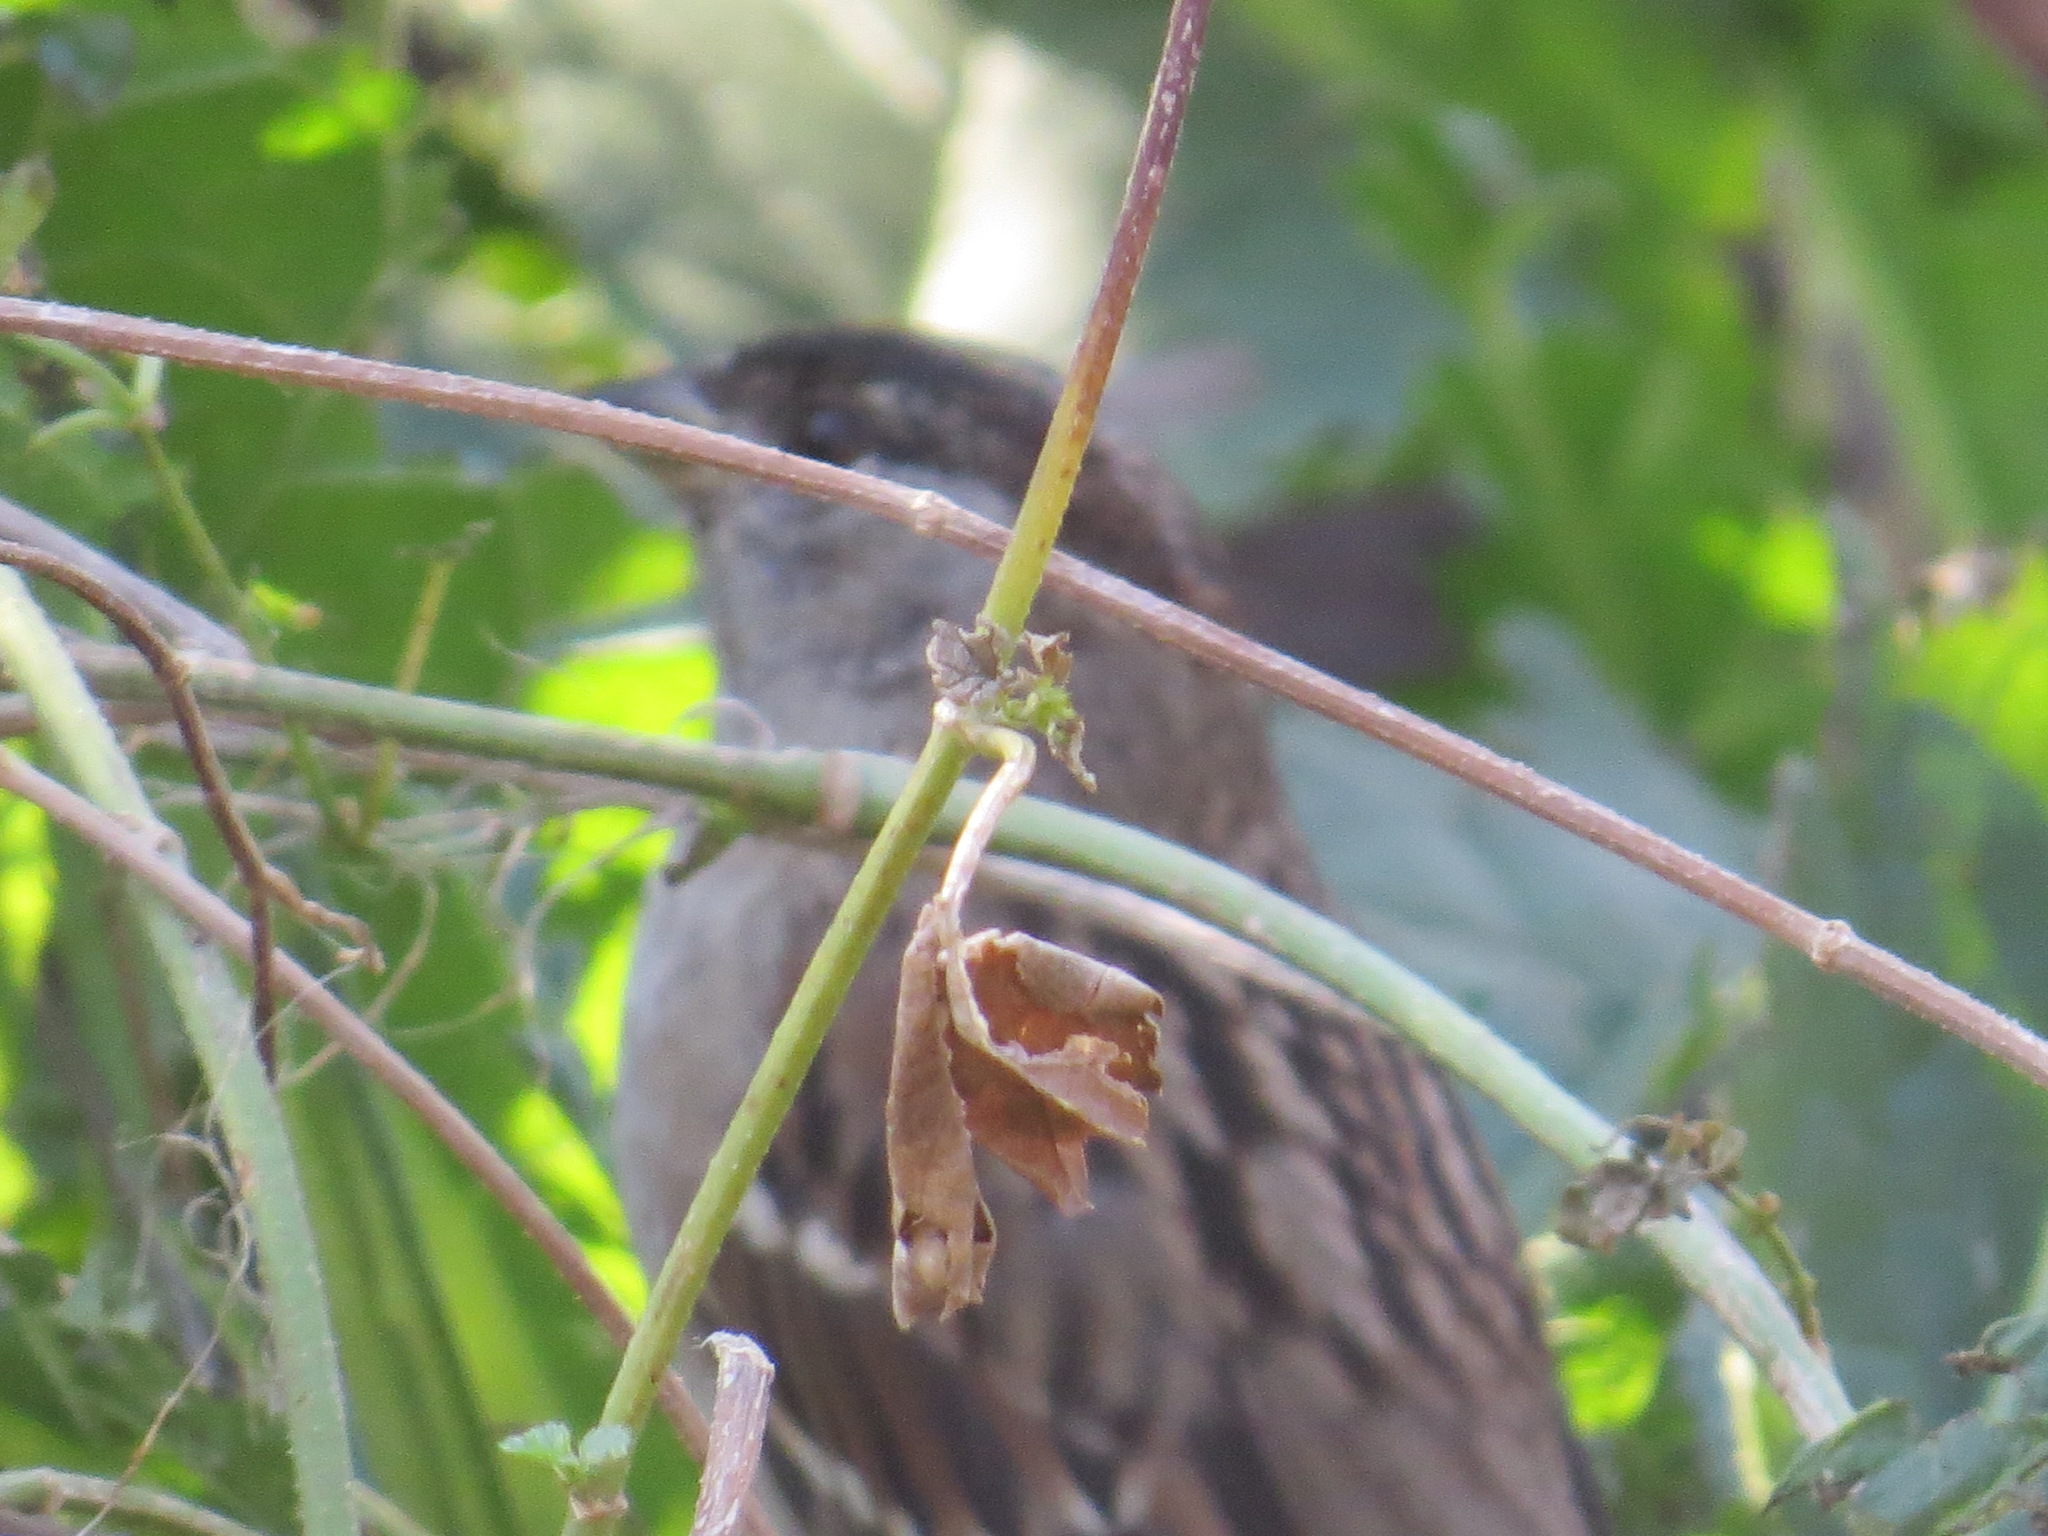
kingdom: Animalia
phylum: Chordata
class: Aves
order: Passeriformes
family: Passerellidae
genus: Zonotrichia
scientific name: Zonotrichia atricapilla
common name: Golden-crowned sparrow
